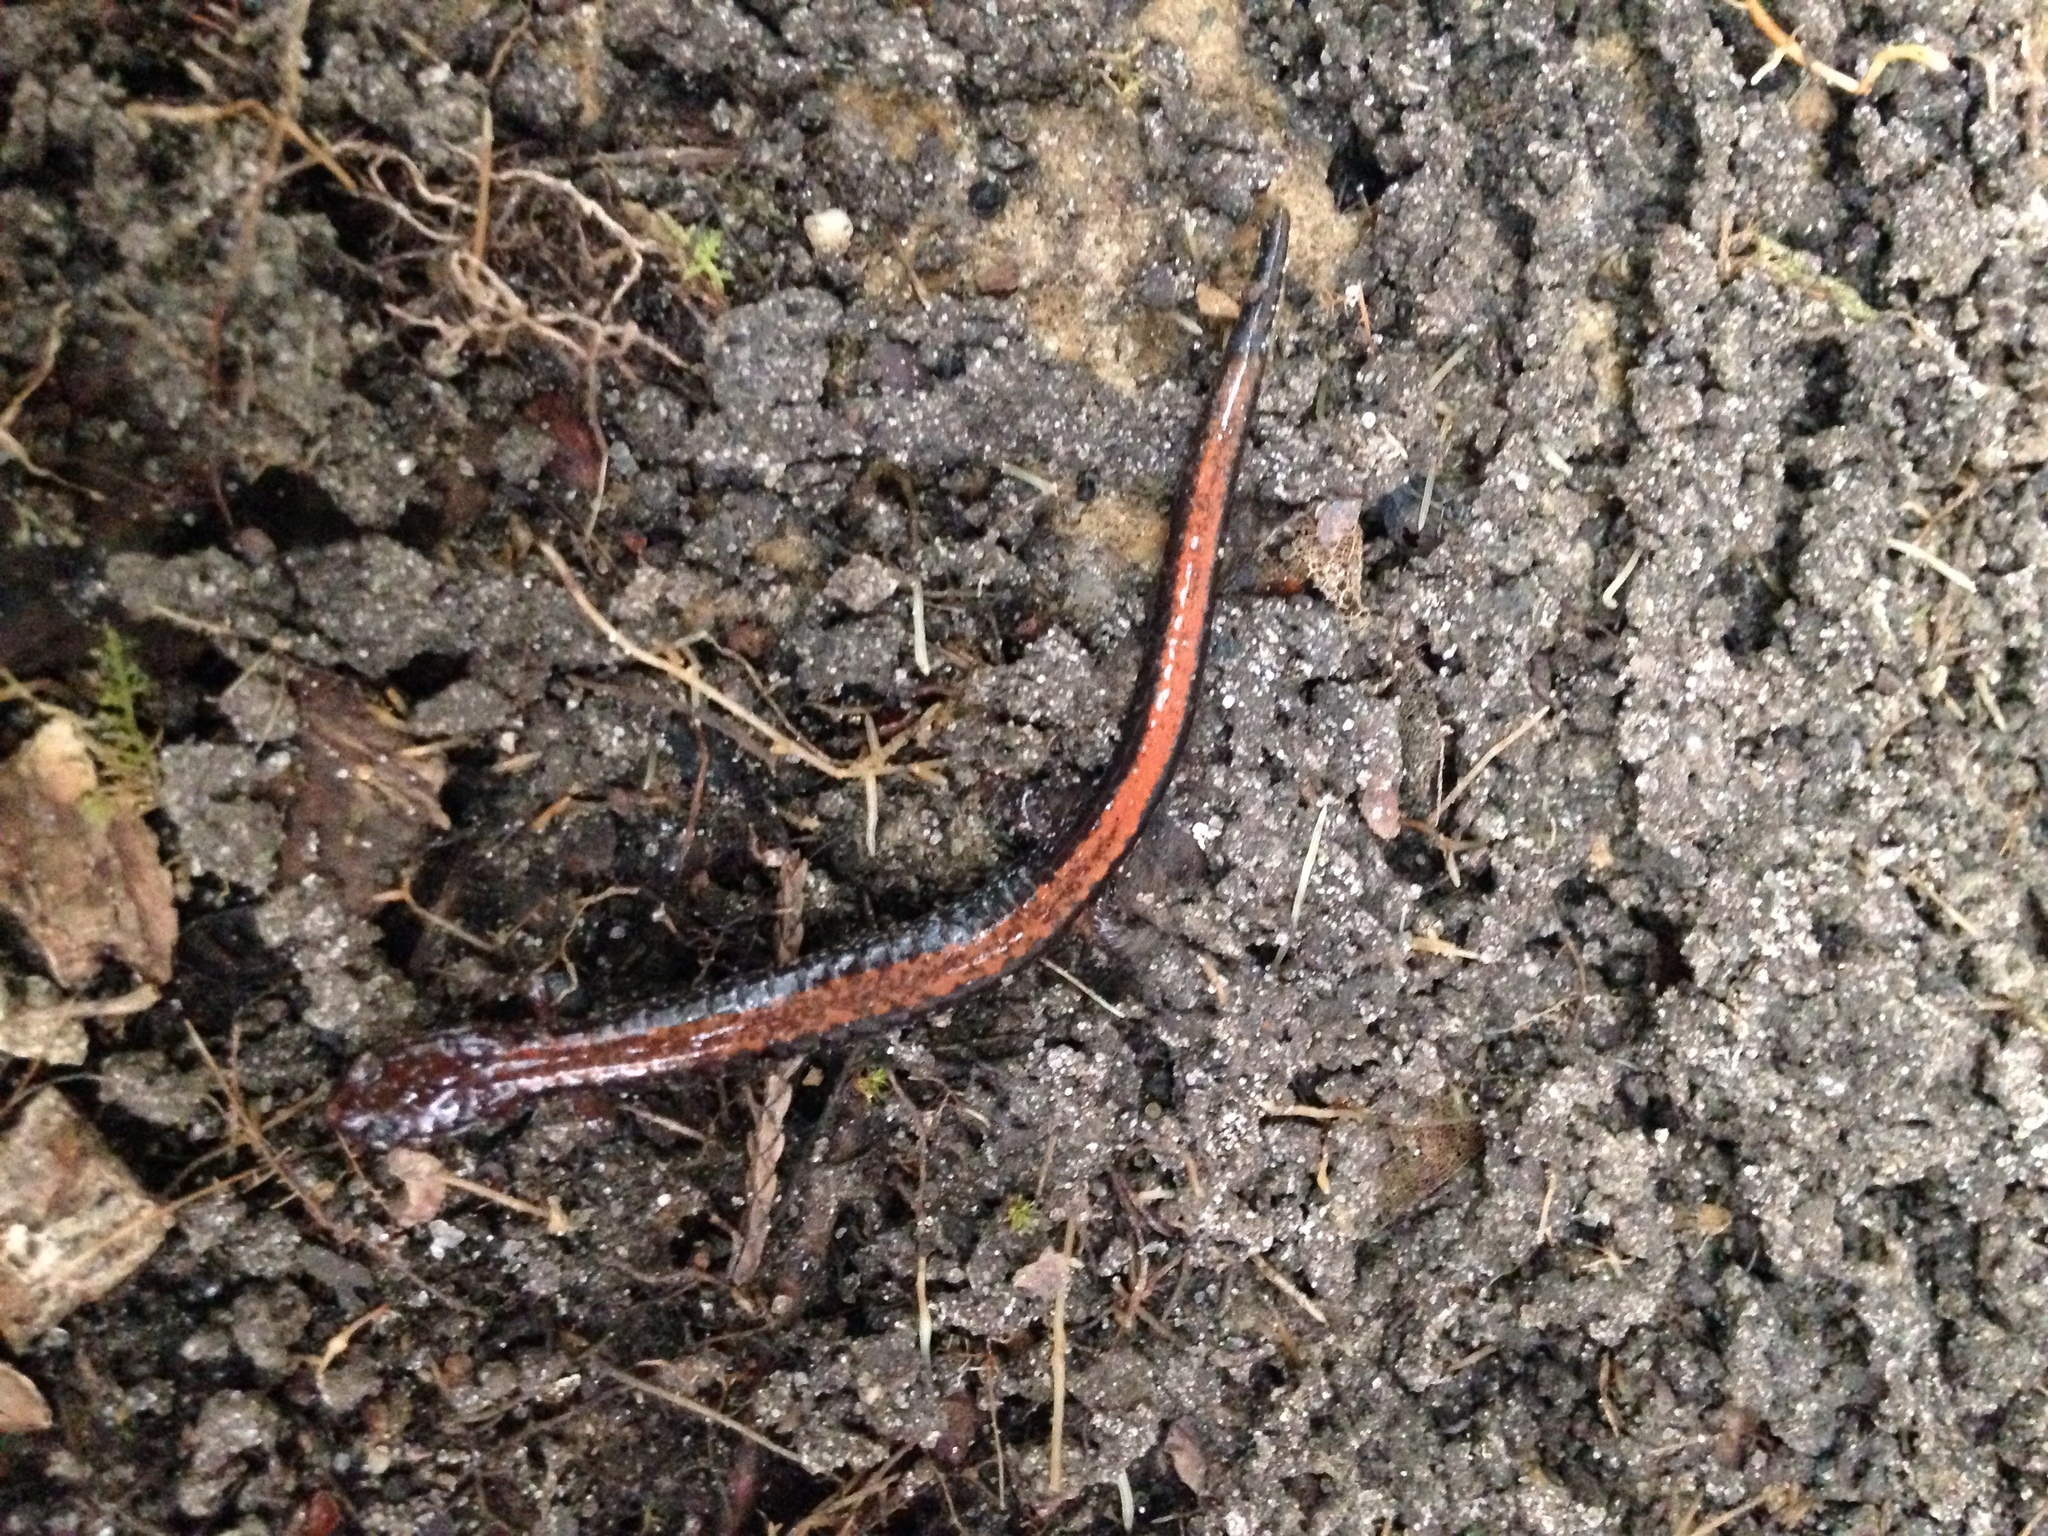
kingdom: Animalia
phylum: Chordata
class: Amphibia
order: Caudata
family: Plethodontidae
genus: Plethodon
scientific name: Plethodon cinereus
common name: Redback salamander
